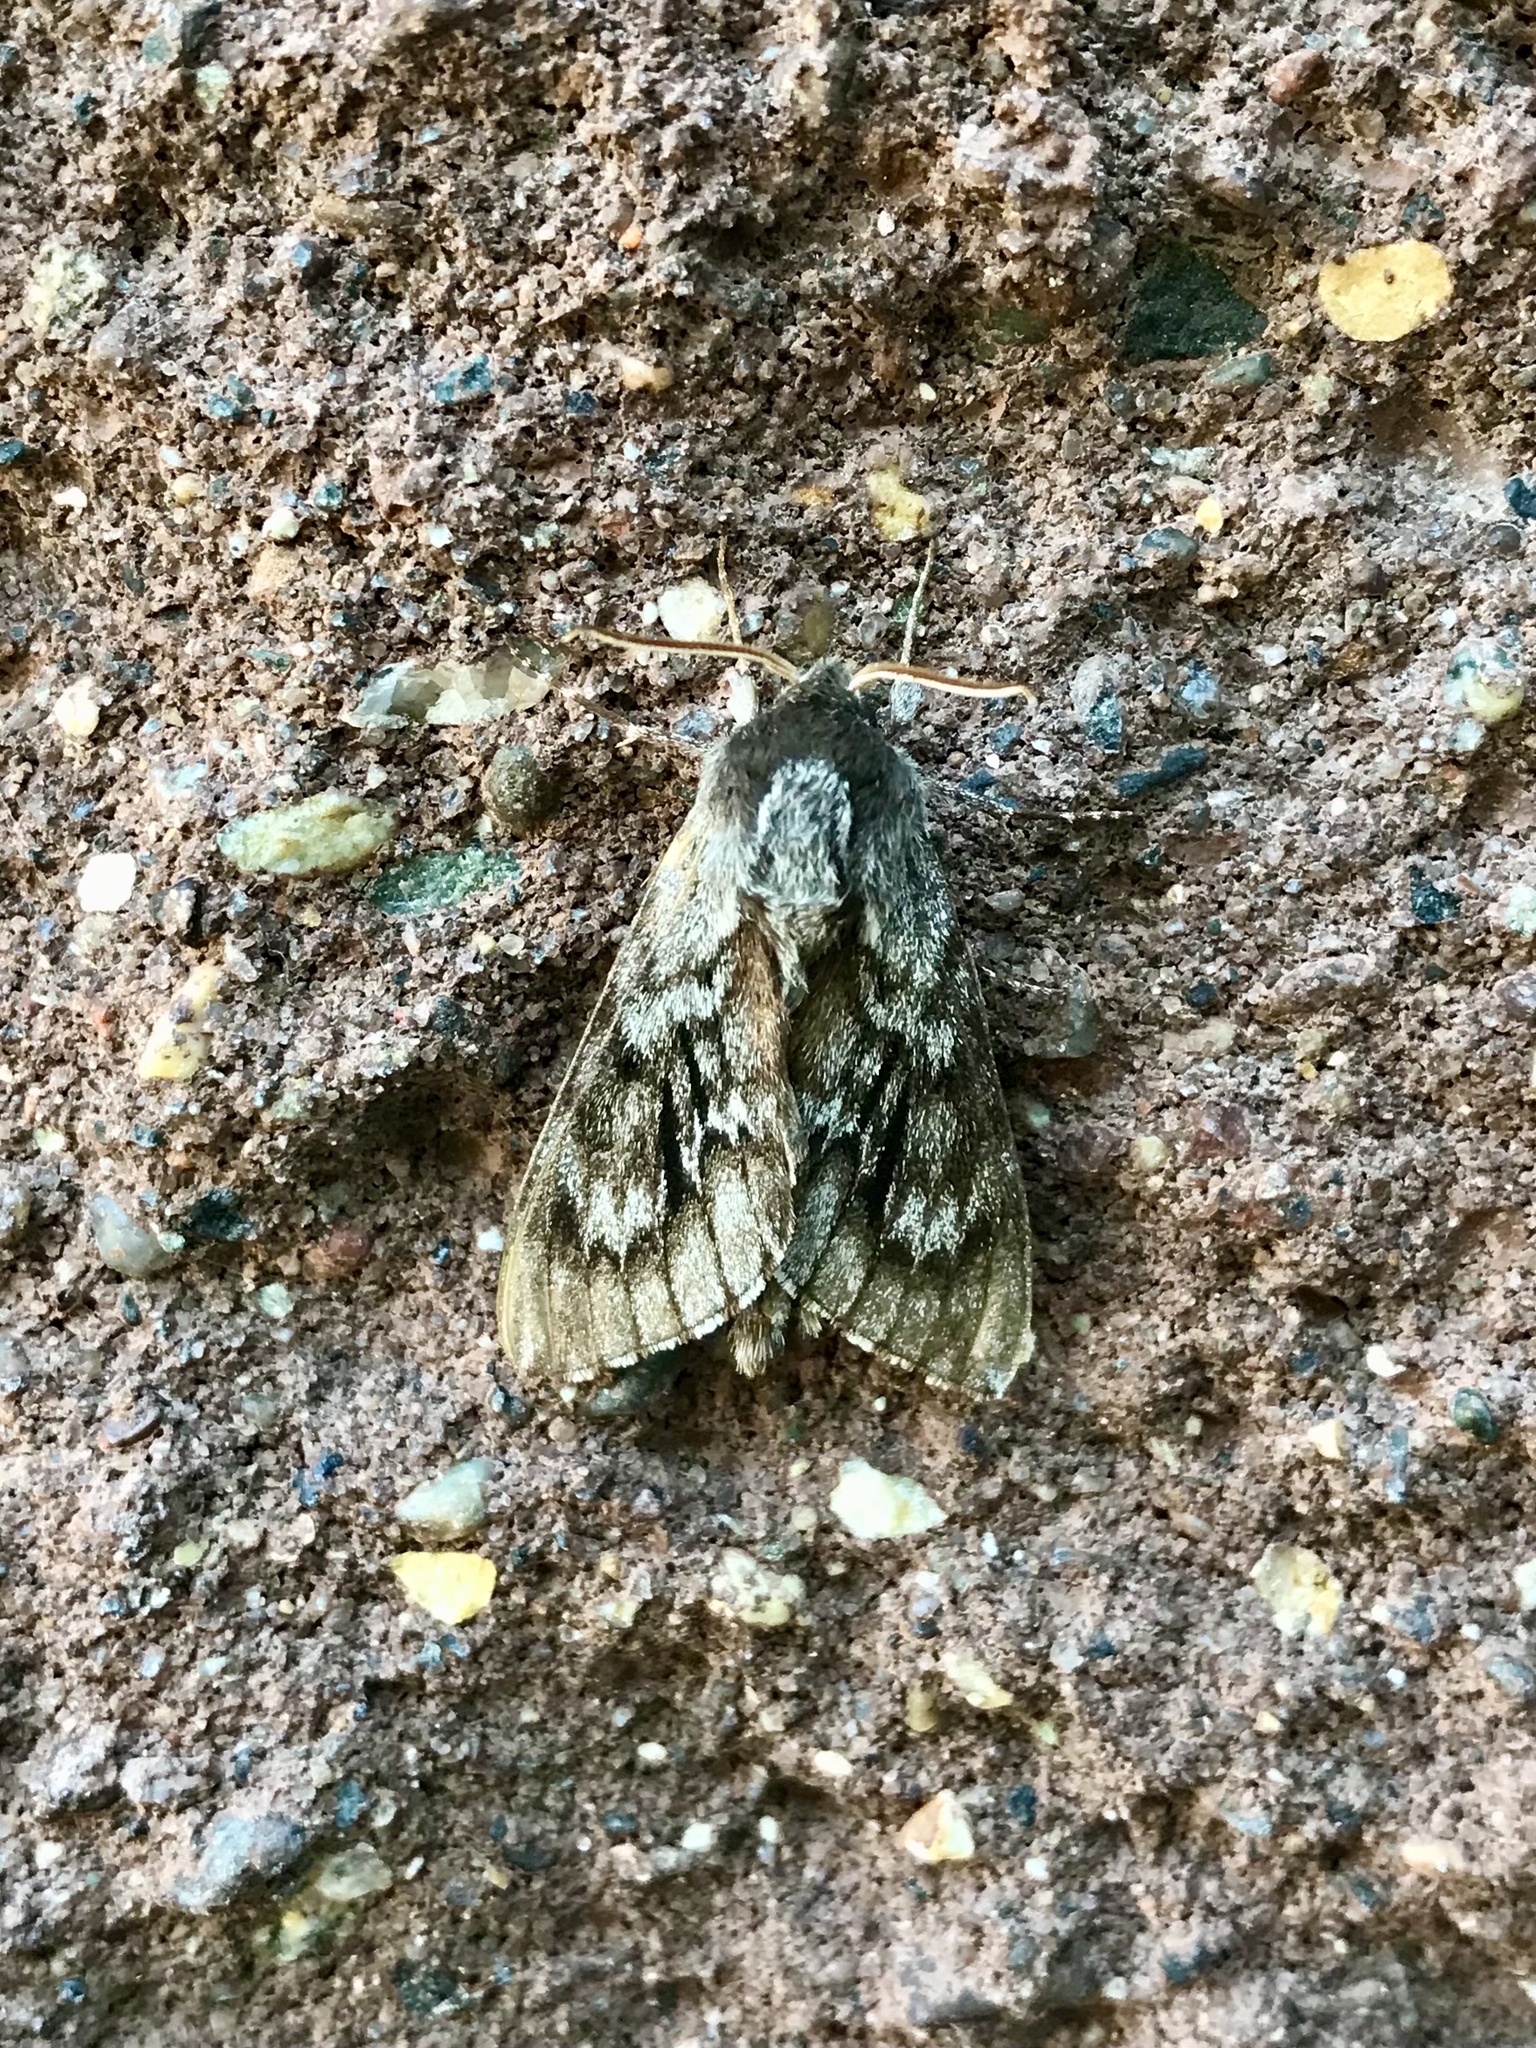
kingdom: Animalia
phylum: Arthropoda
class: Insecta
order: Lepidoptera
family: Sphingidae
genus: Lapara
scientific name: Lapara bombycoides
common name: Northern pine sphinx
